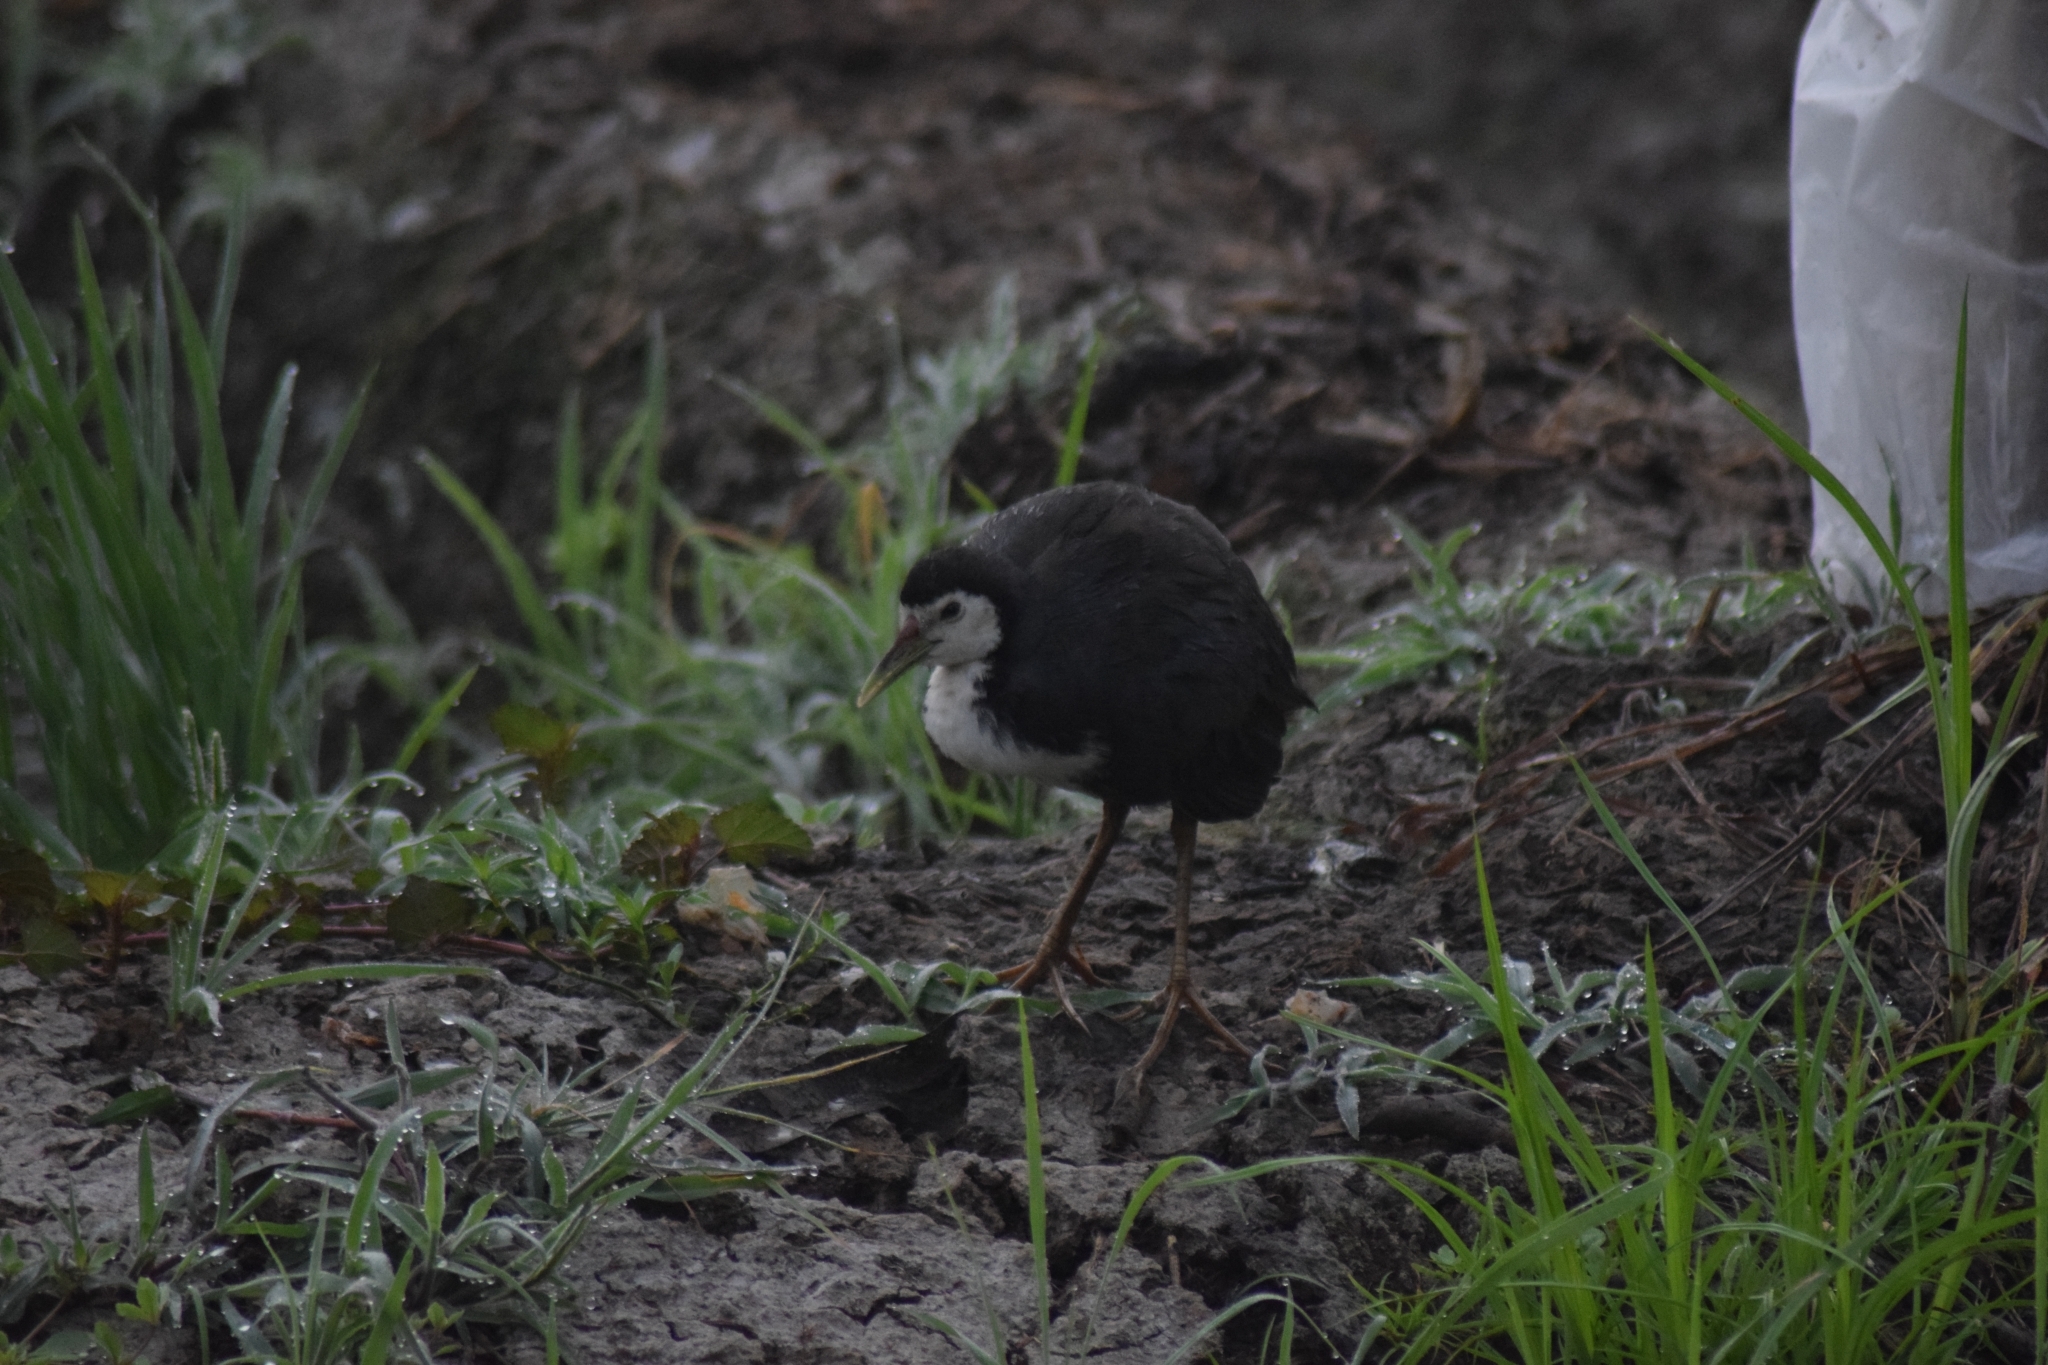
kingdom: Animalia
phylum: Chordata
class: Aves
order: Gruiformes
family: Rallidae
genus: Amaurornis
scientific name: Amaurornis phoenicurus
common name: White-breasted waterhen
